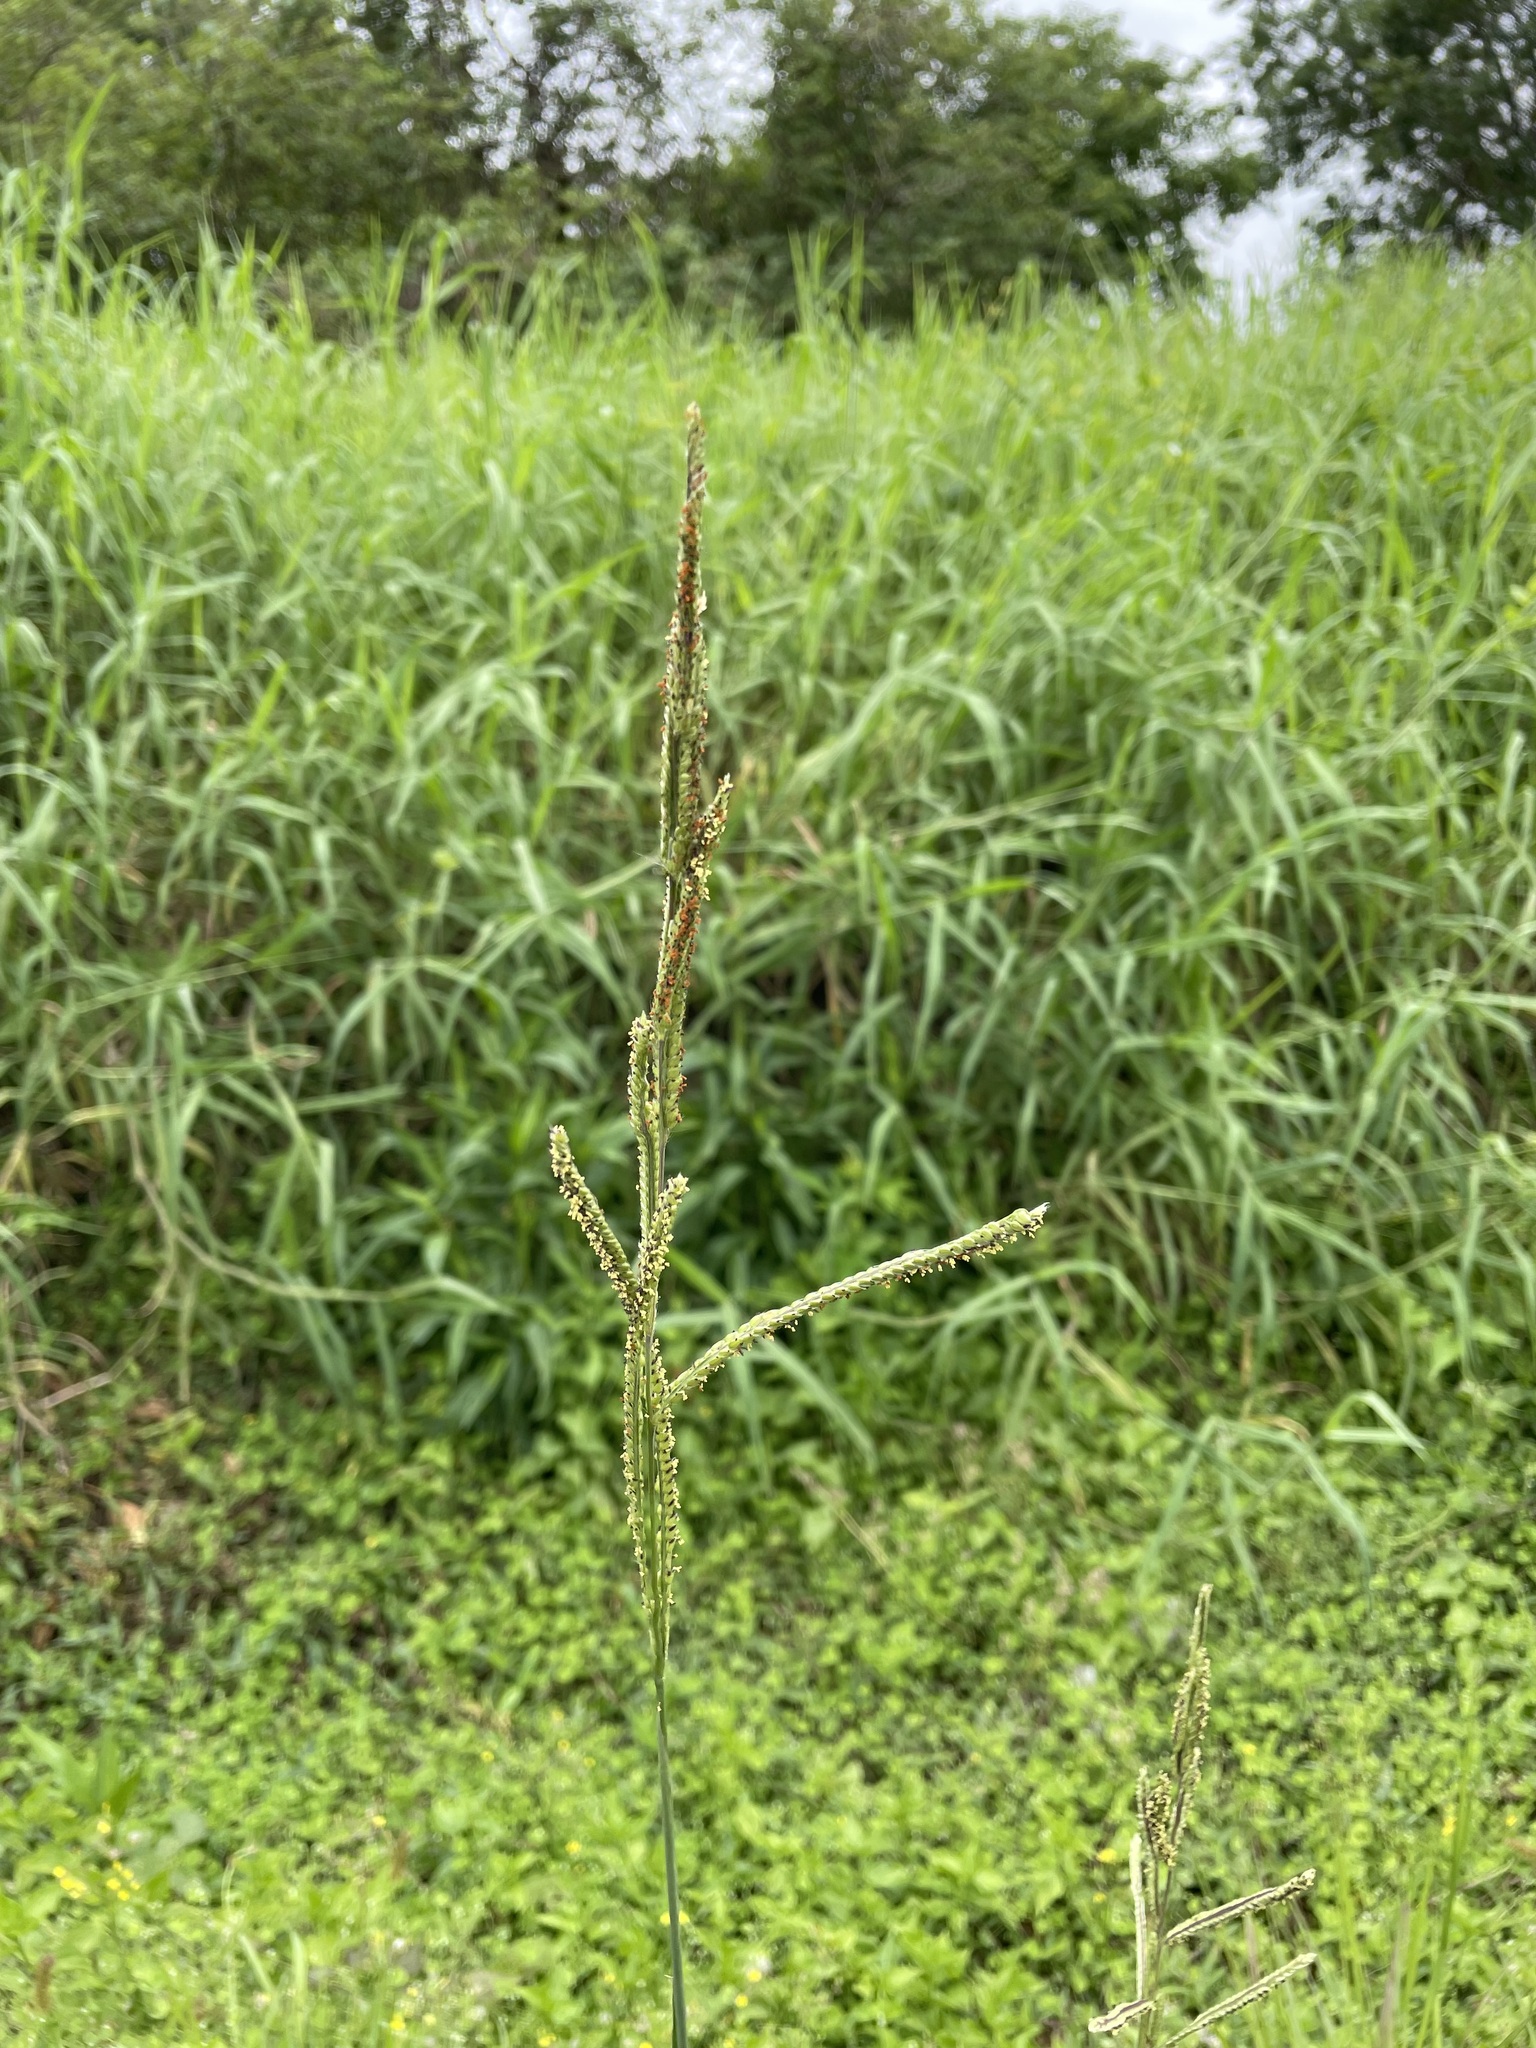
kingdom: Plantae
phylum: Tracheophyta
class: Liliopsida
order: Poales
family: Poaceae
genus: Paspalum
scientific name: Paspalum urvillei
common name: Vasey's grass
